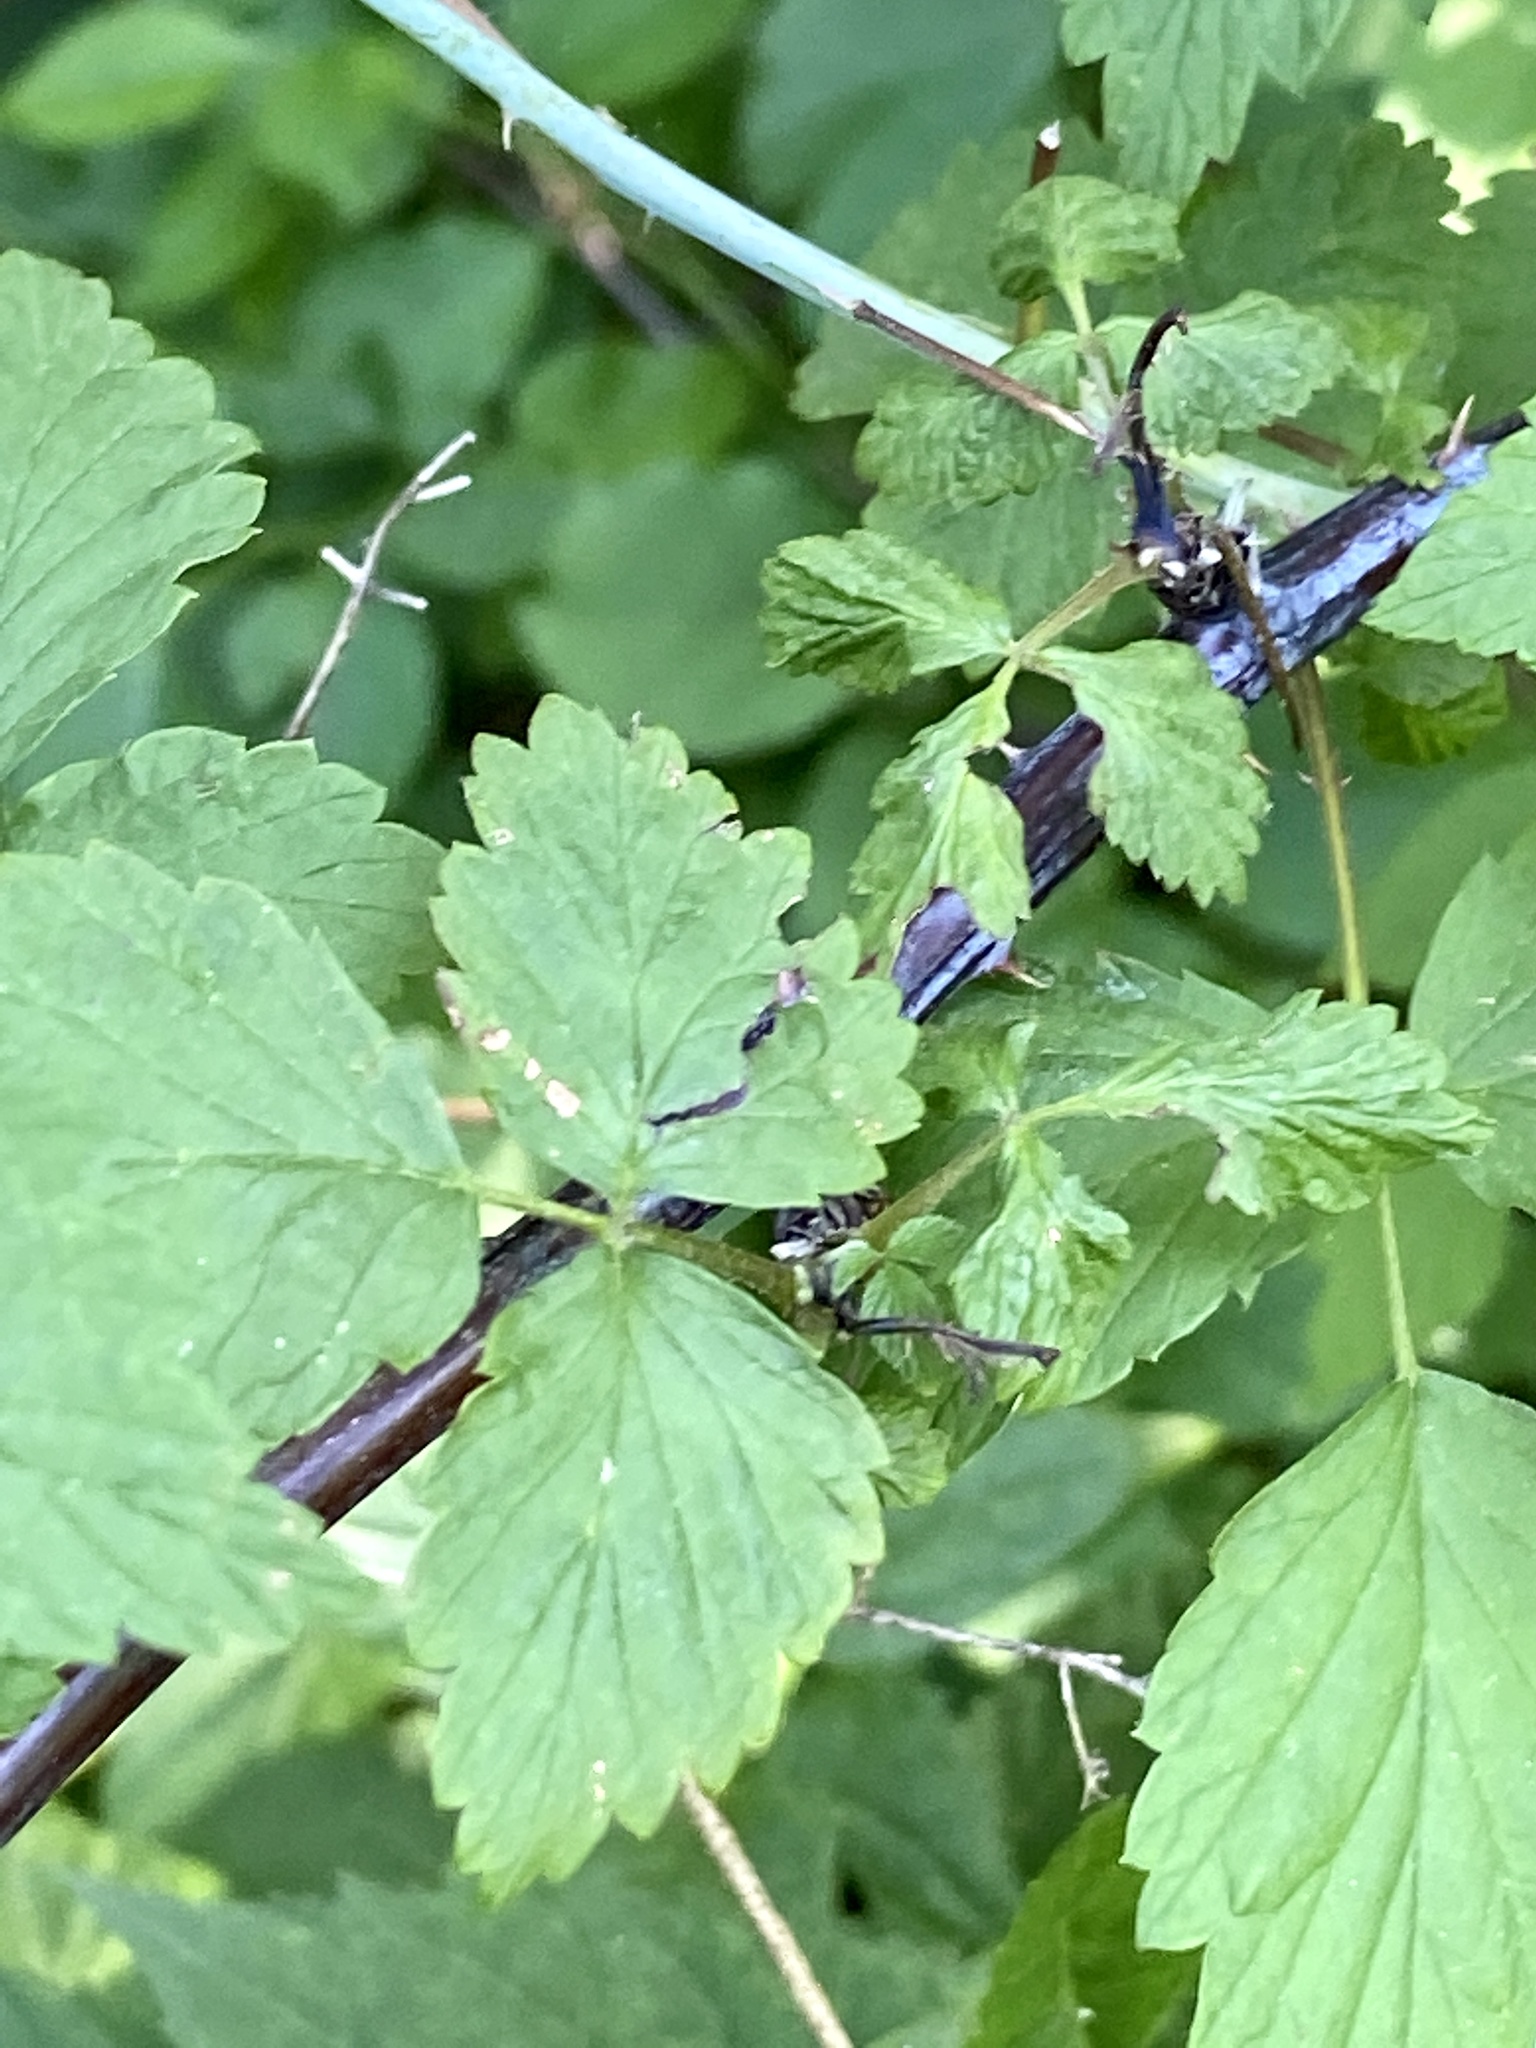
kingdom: Plantae
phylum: Tracheophyta
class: Magnoliopsida
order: Rosales
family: Rosaceae
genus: Rubus
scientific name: Rubus occidentalis
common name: Black raspberry
